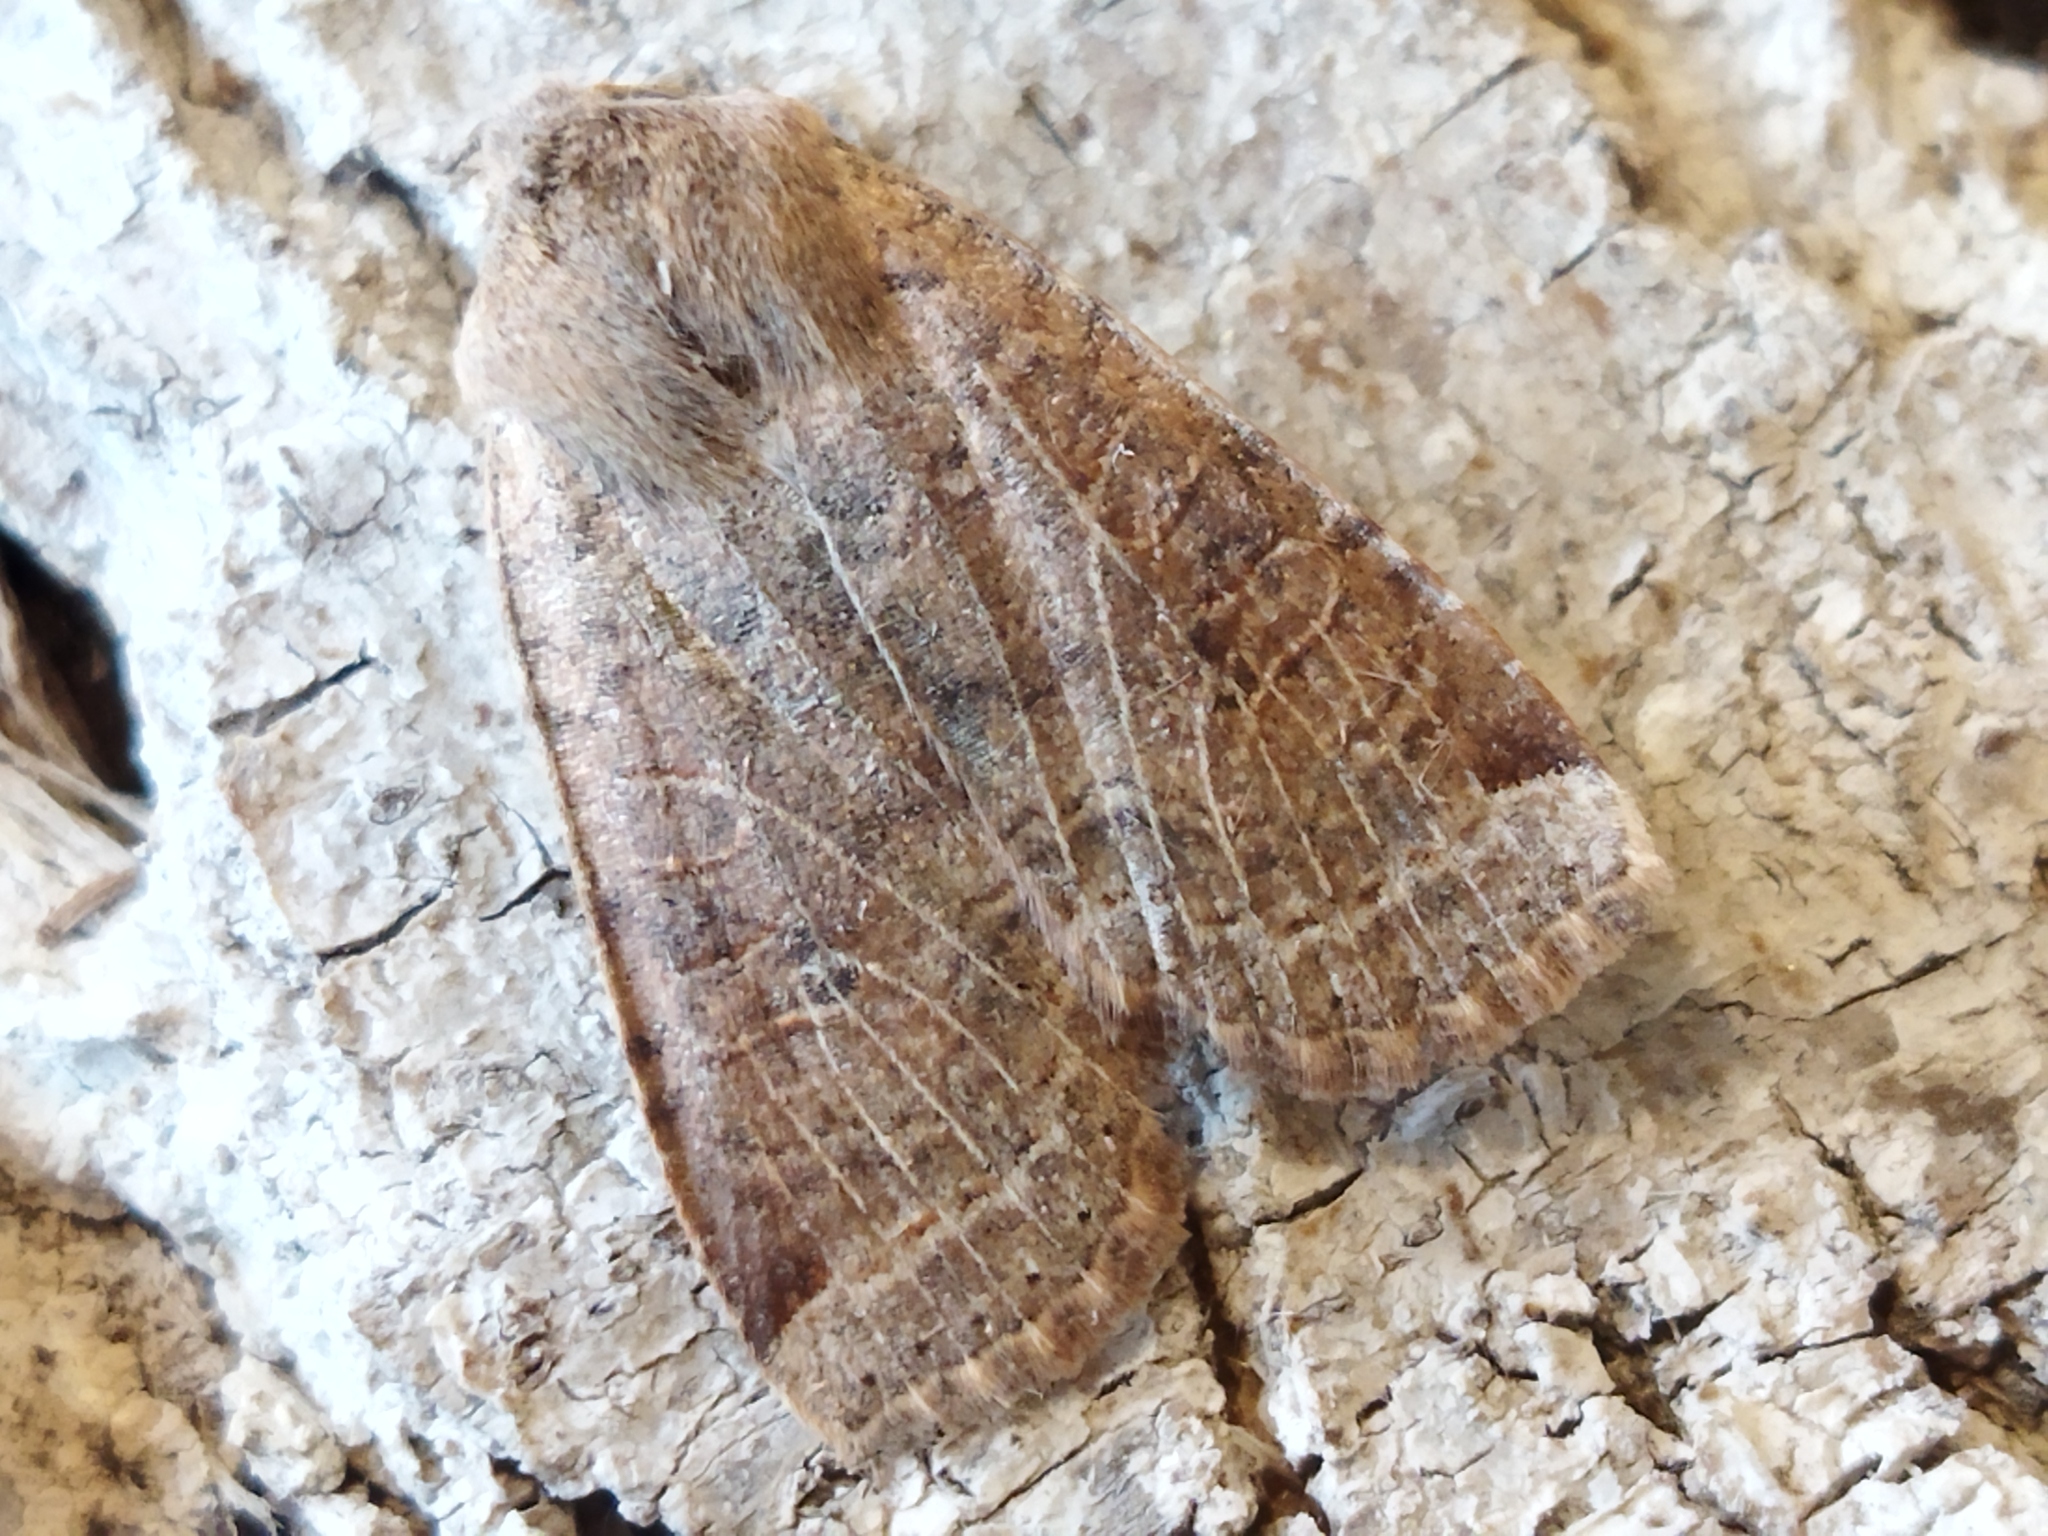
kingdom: Animalia
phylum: Arthropoda
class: Insecta
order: Lepidoptera
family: Noctuidae
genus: Conistra
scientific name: Conistra veronicae
